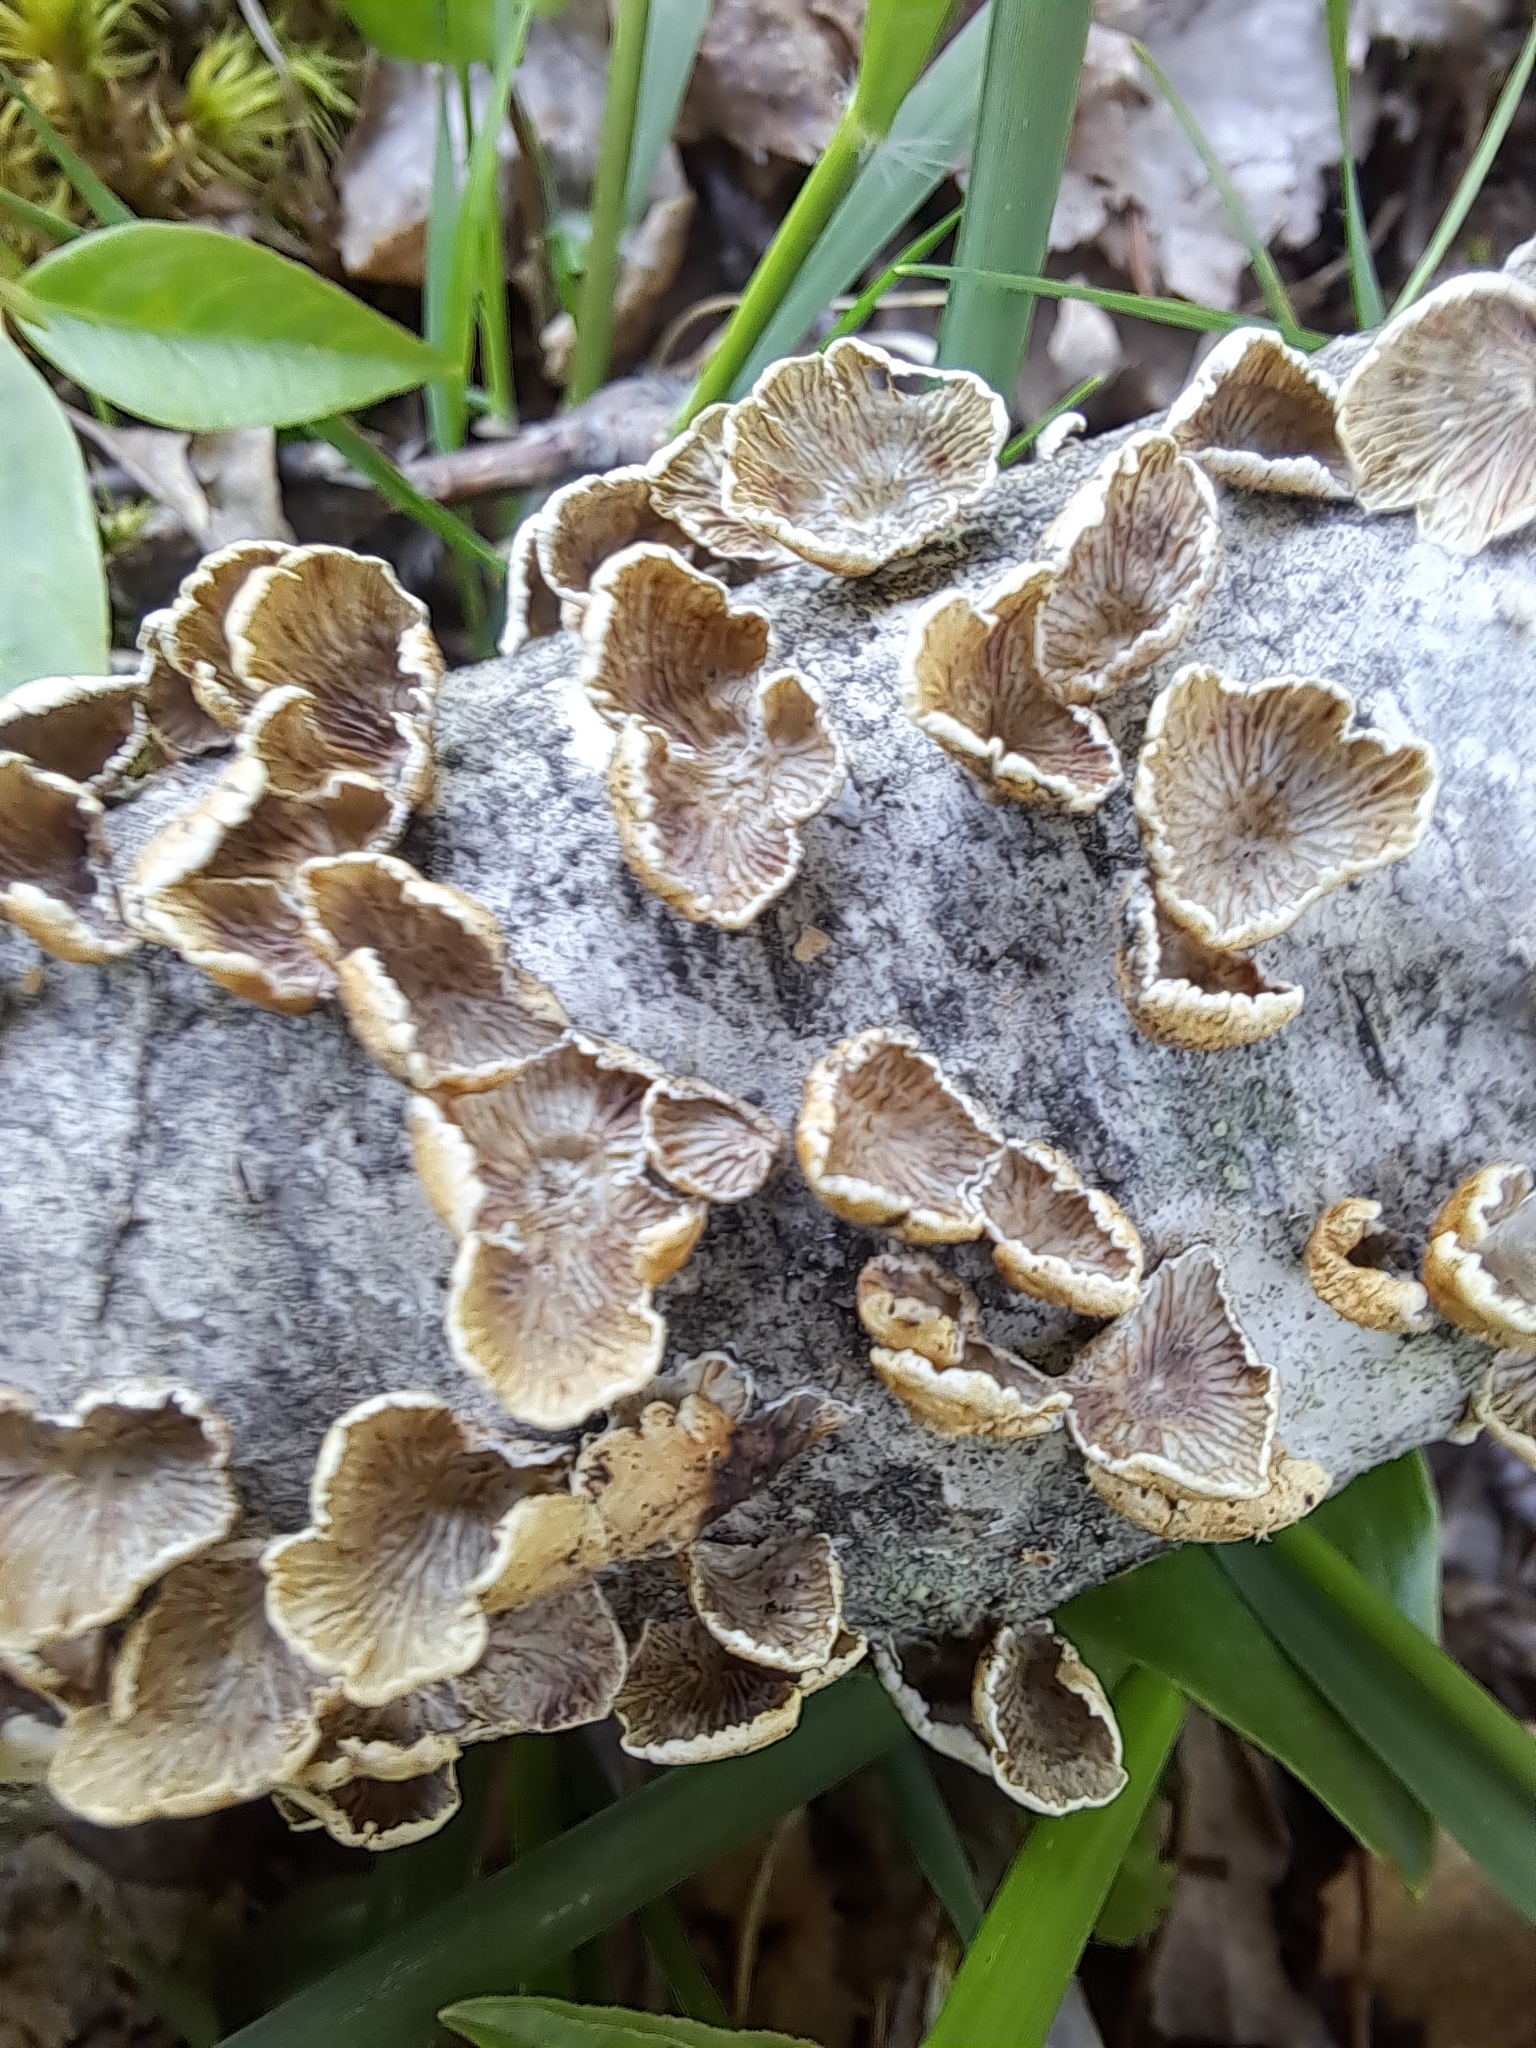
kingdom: Fungi
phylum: Basidiomycota
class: Agaricomycetes
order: Amylocorticiales
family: Amylocorticiaceae
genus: Plicaturopsis
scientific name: Plicaturopsis crispa
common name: Crimped gill
